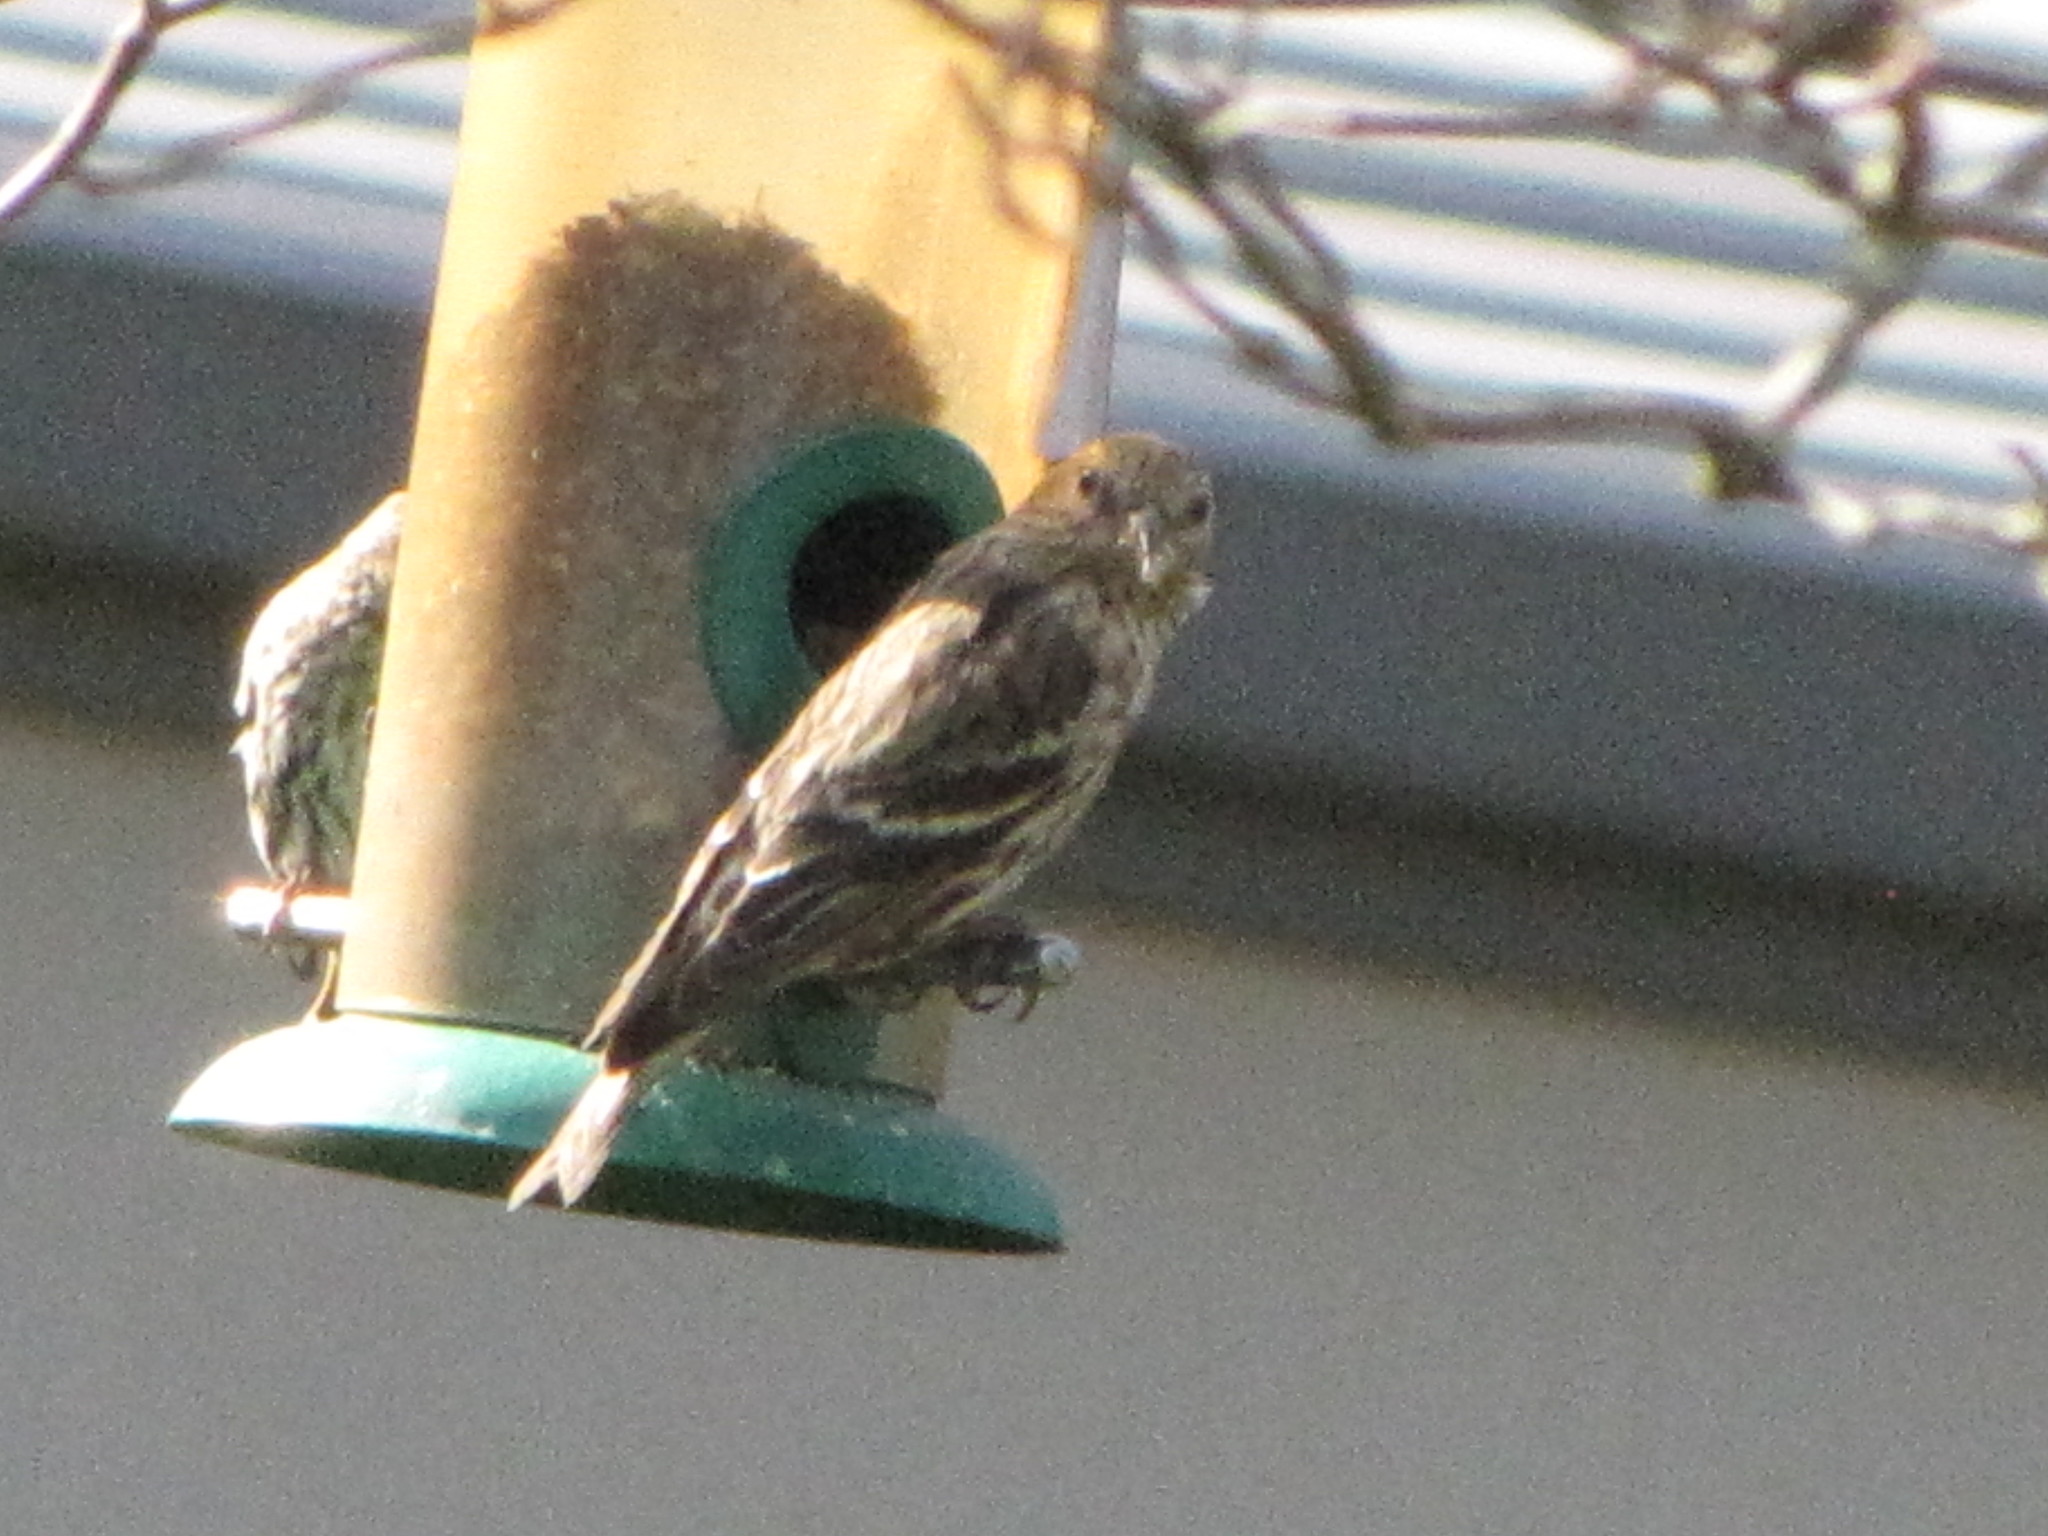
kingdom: Animalia
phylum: Chordata
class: Aves
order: Passeriformes
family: Fringillidae
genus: Spinus
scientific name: Spinus pinus
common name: Pine siskin
